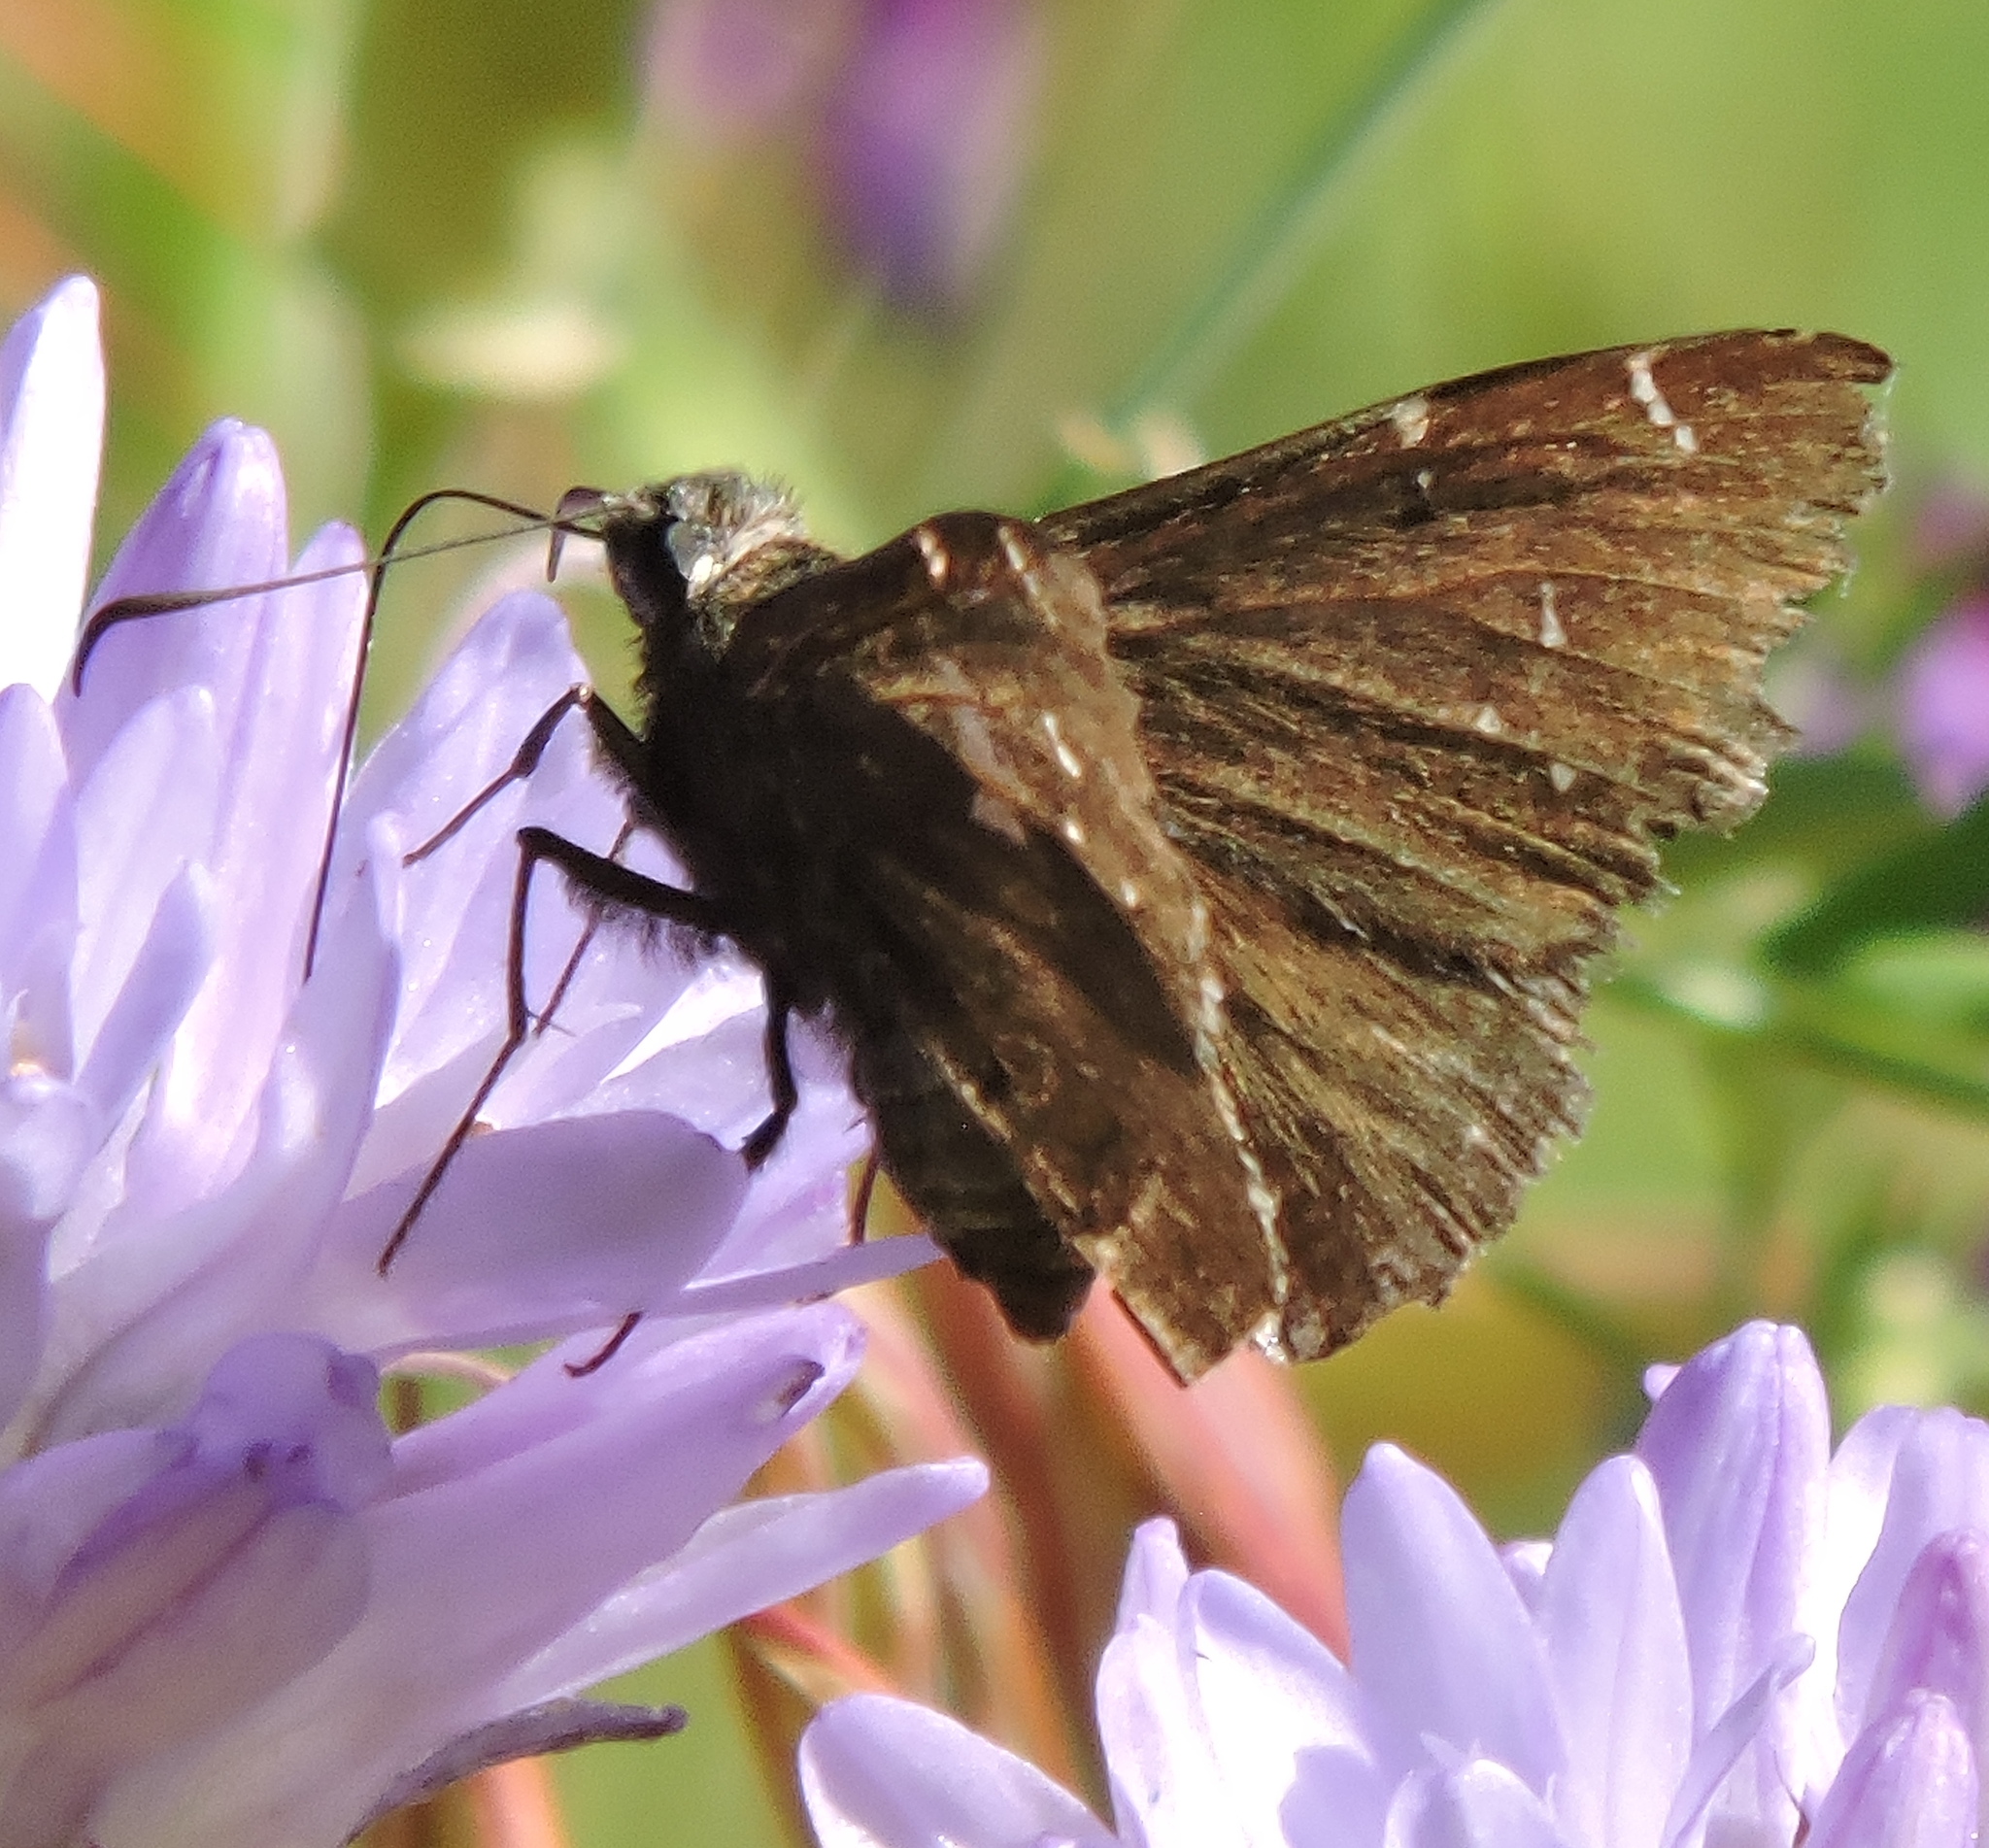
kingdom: Animalia
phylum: Arthropoda
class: Insecta
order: Lepidoptera
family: Hesperiidae
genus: Thorybes
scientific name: Thorybes pylades
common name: Northern cloudywing
